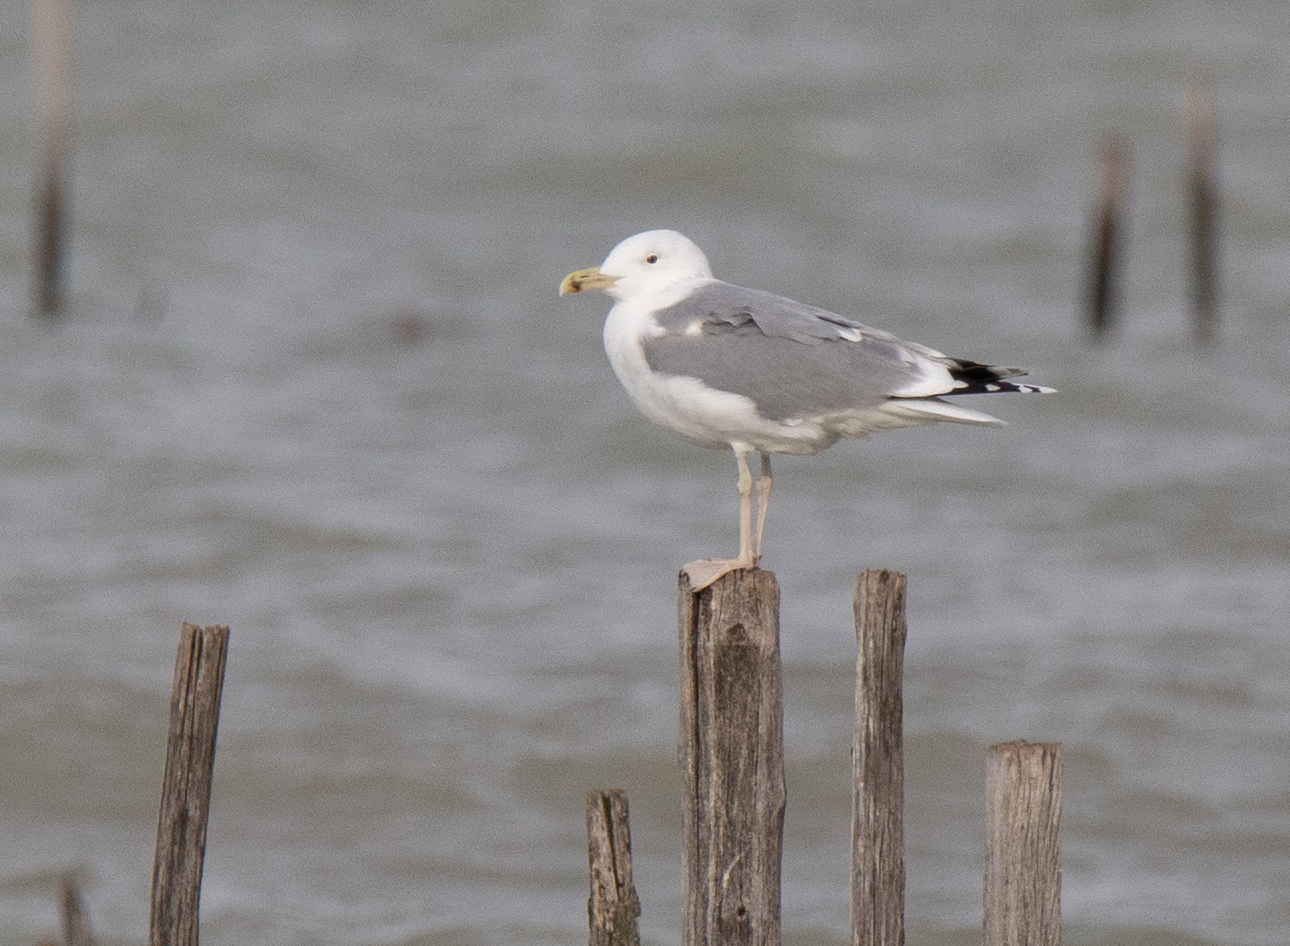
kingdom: Animalia
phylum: Chordata
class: Aves
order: Charadriiformes
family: Laridae
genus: Larus
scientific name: Larus cachinnans
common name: Caspian gull
